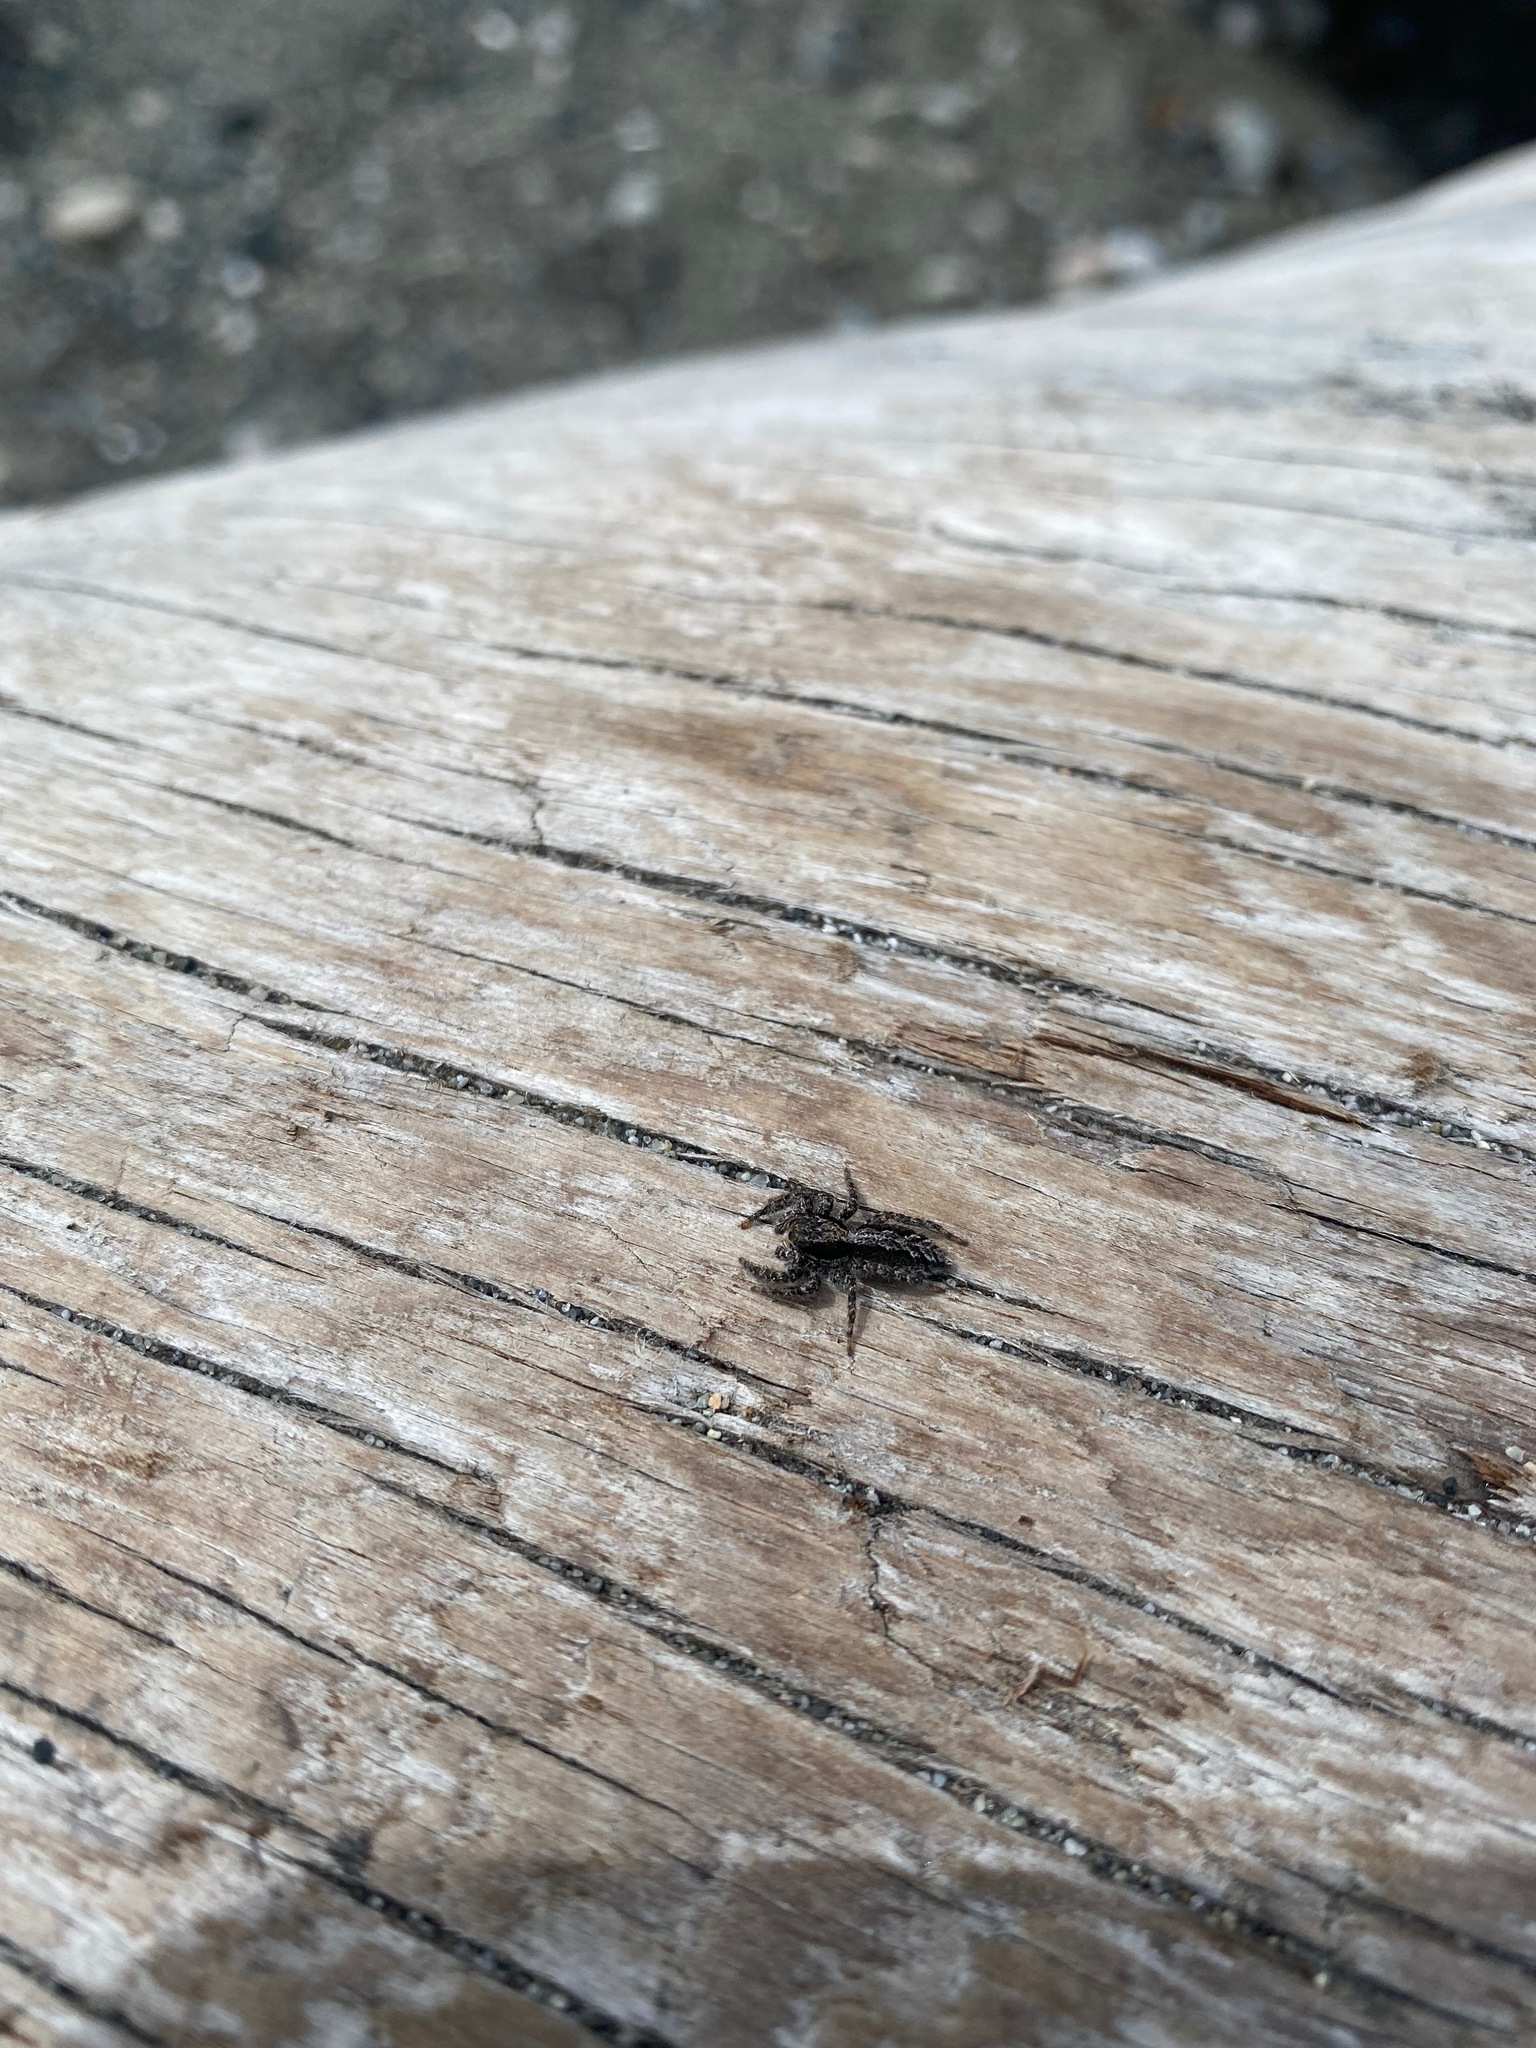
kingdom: Animalia
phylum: Arthropoda
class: Arachnida
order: Araneae
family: Salticidae
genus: Platycryptus
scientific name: Platycryptus californicus
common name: Jumping spiders
